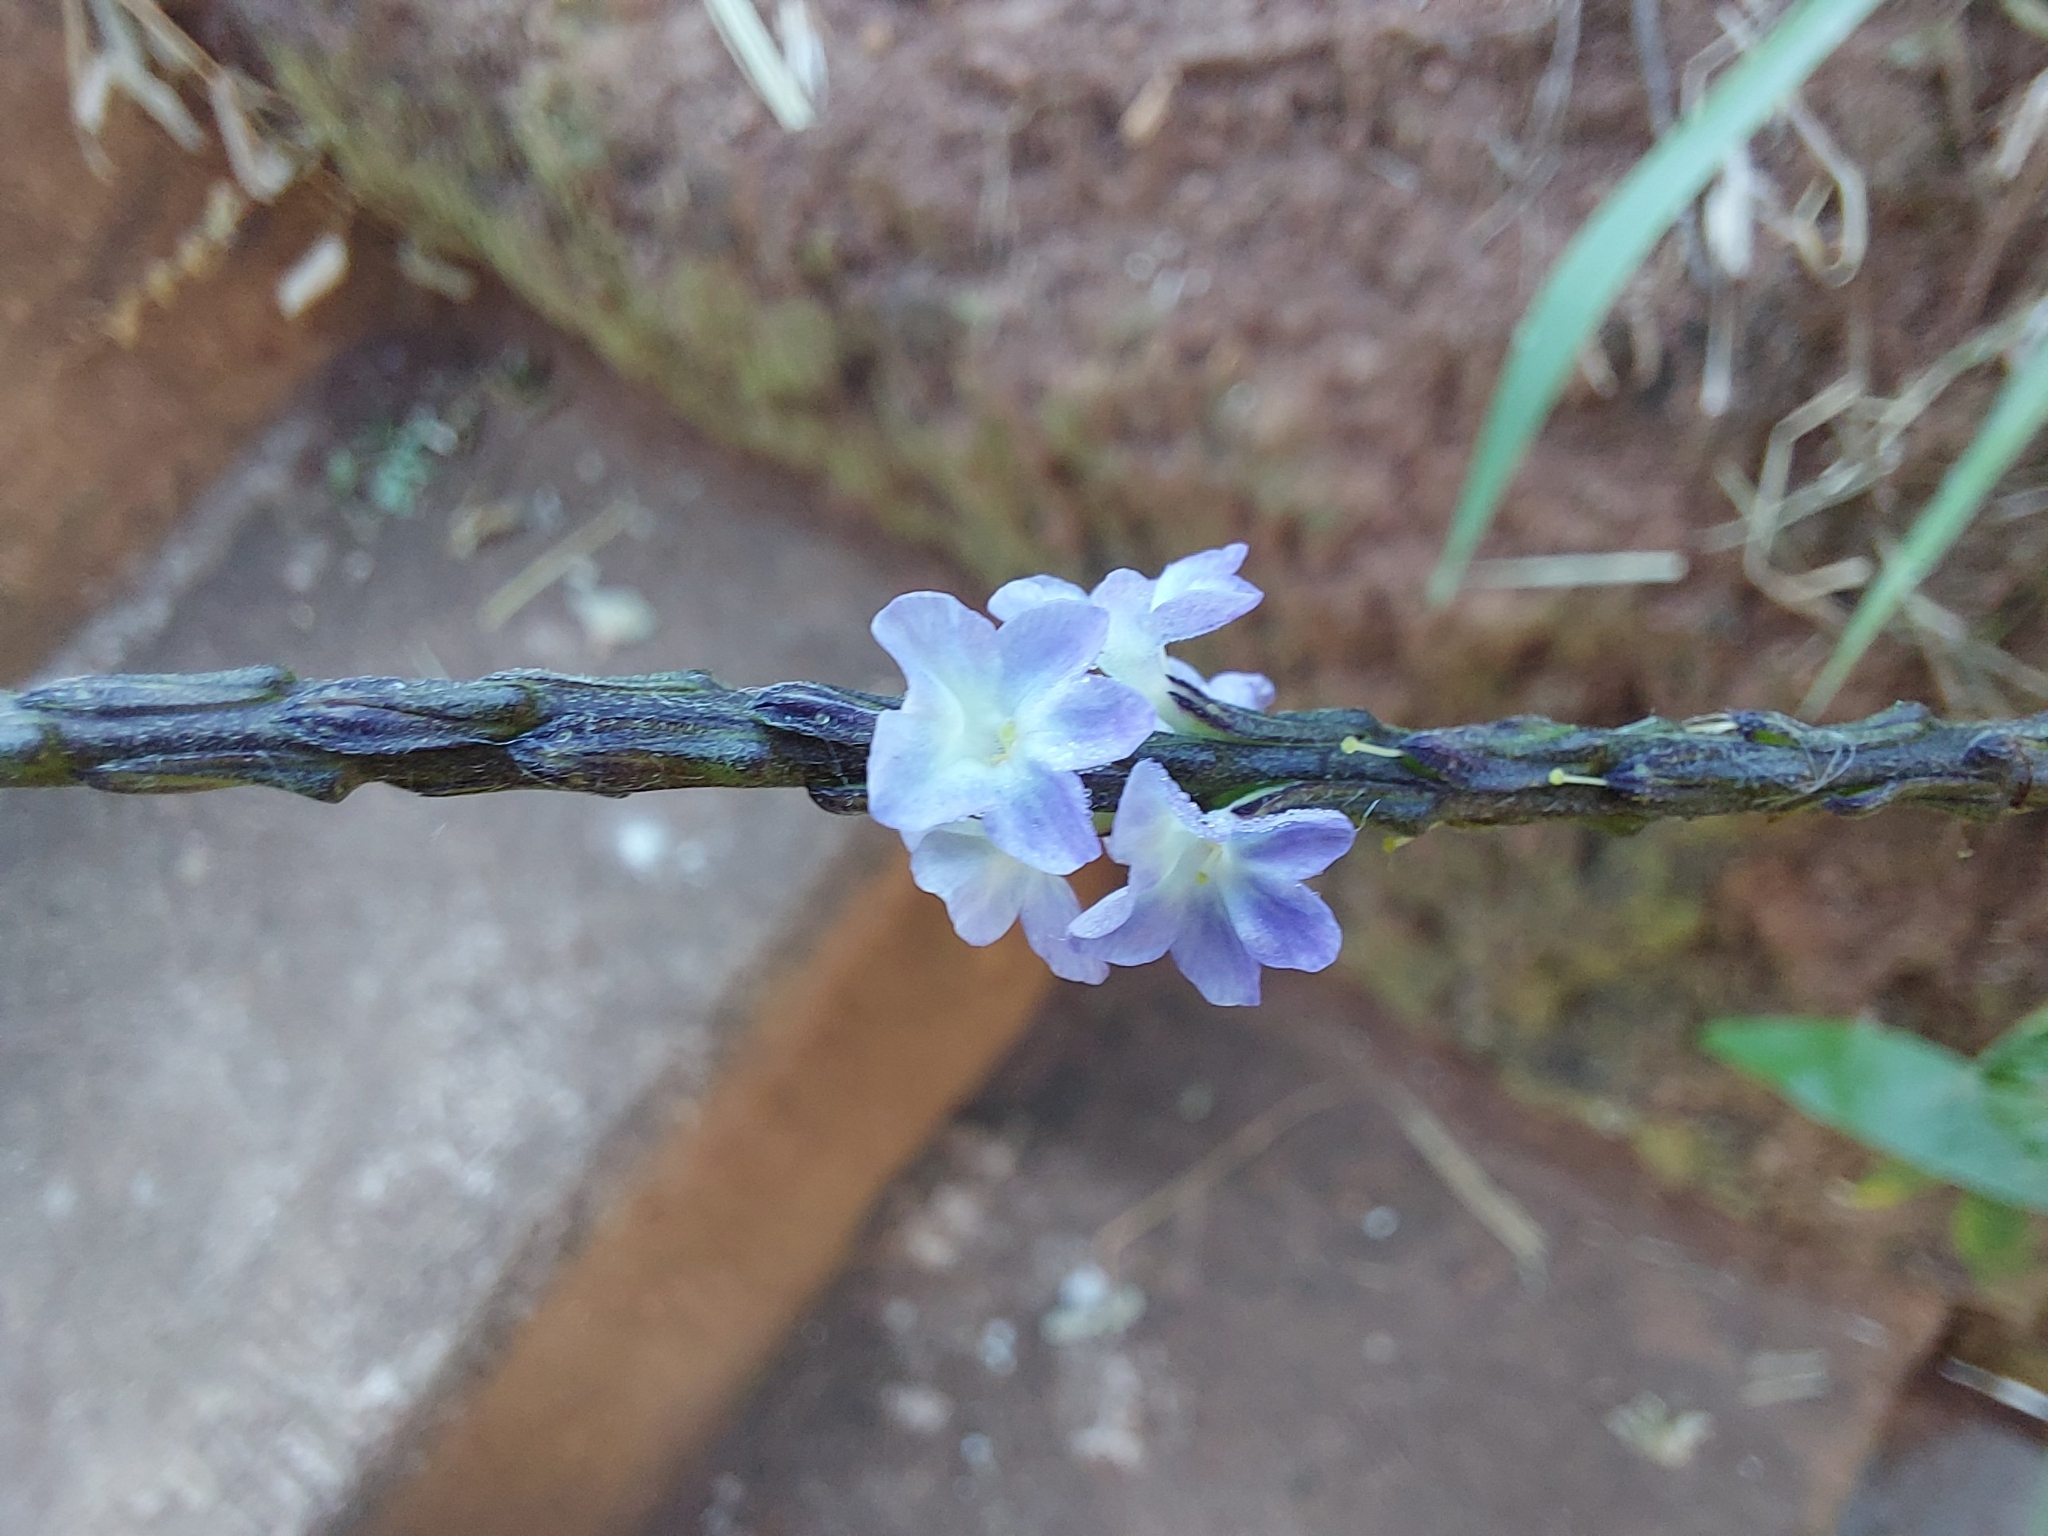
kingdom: Plantae
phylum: Tracheophyta
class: Magnoliopsida
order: Lamiales
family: Verbenaceae
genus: Stachytarpheta
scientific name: Stachytarpheta cayennensis
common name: Cayenne porterweed
